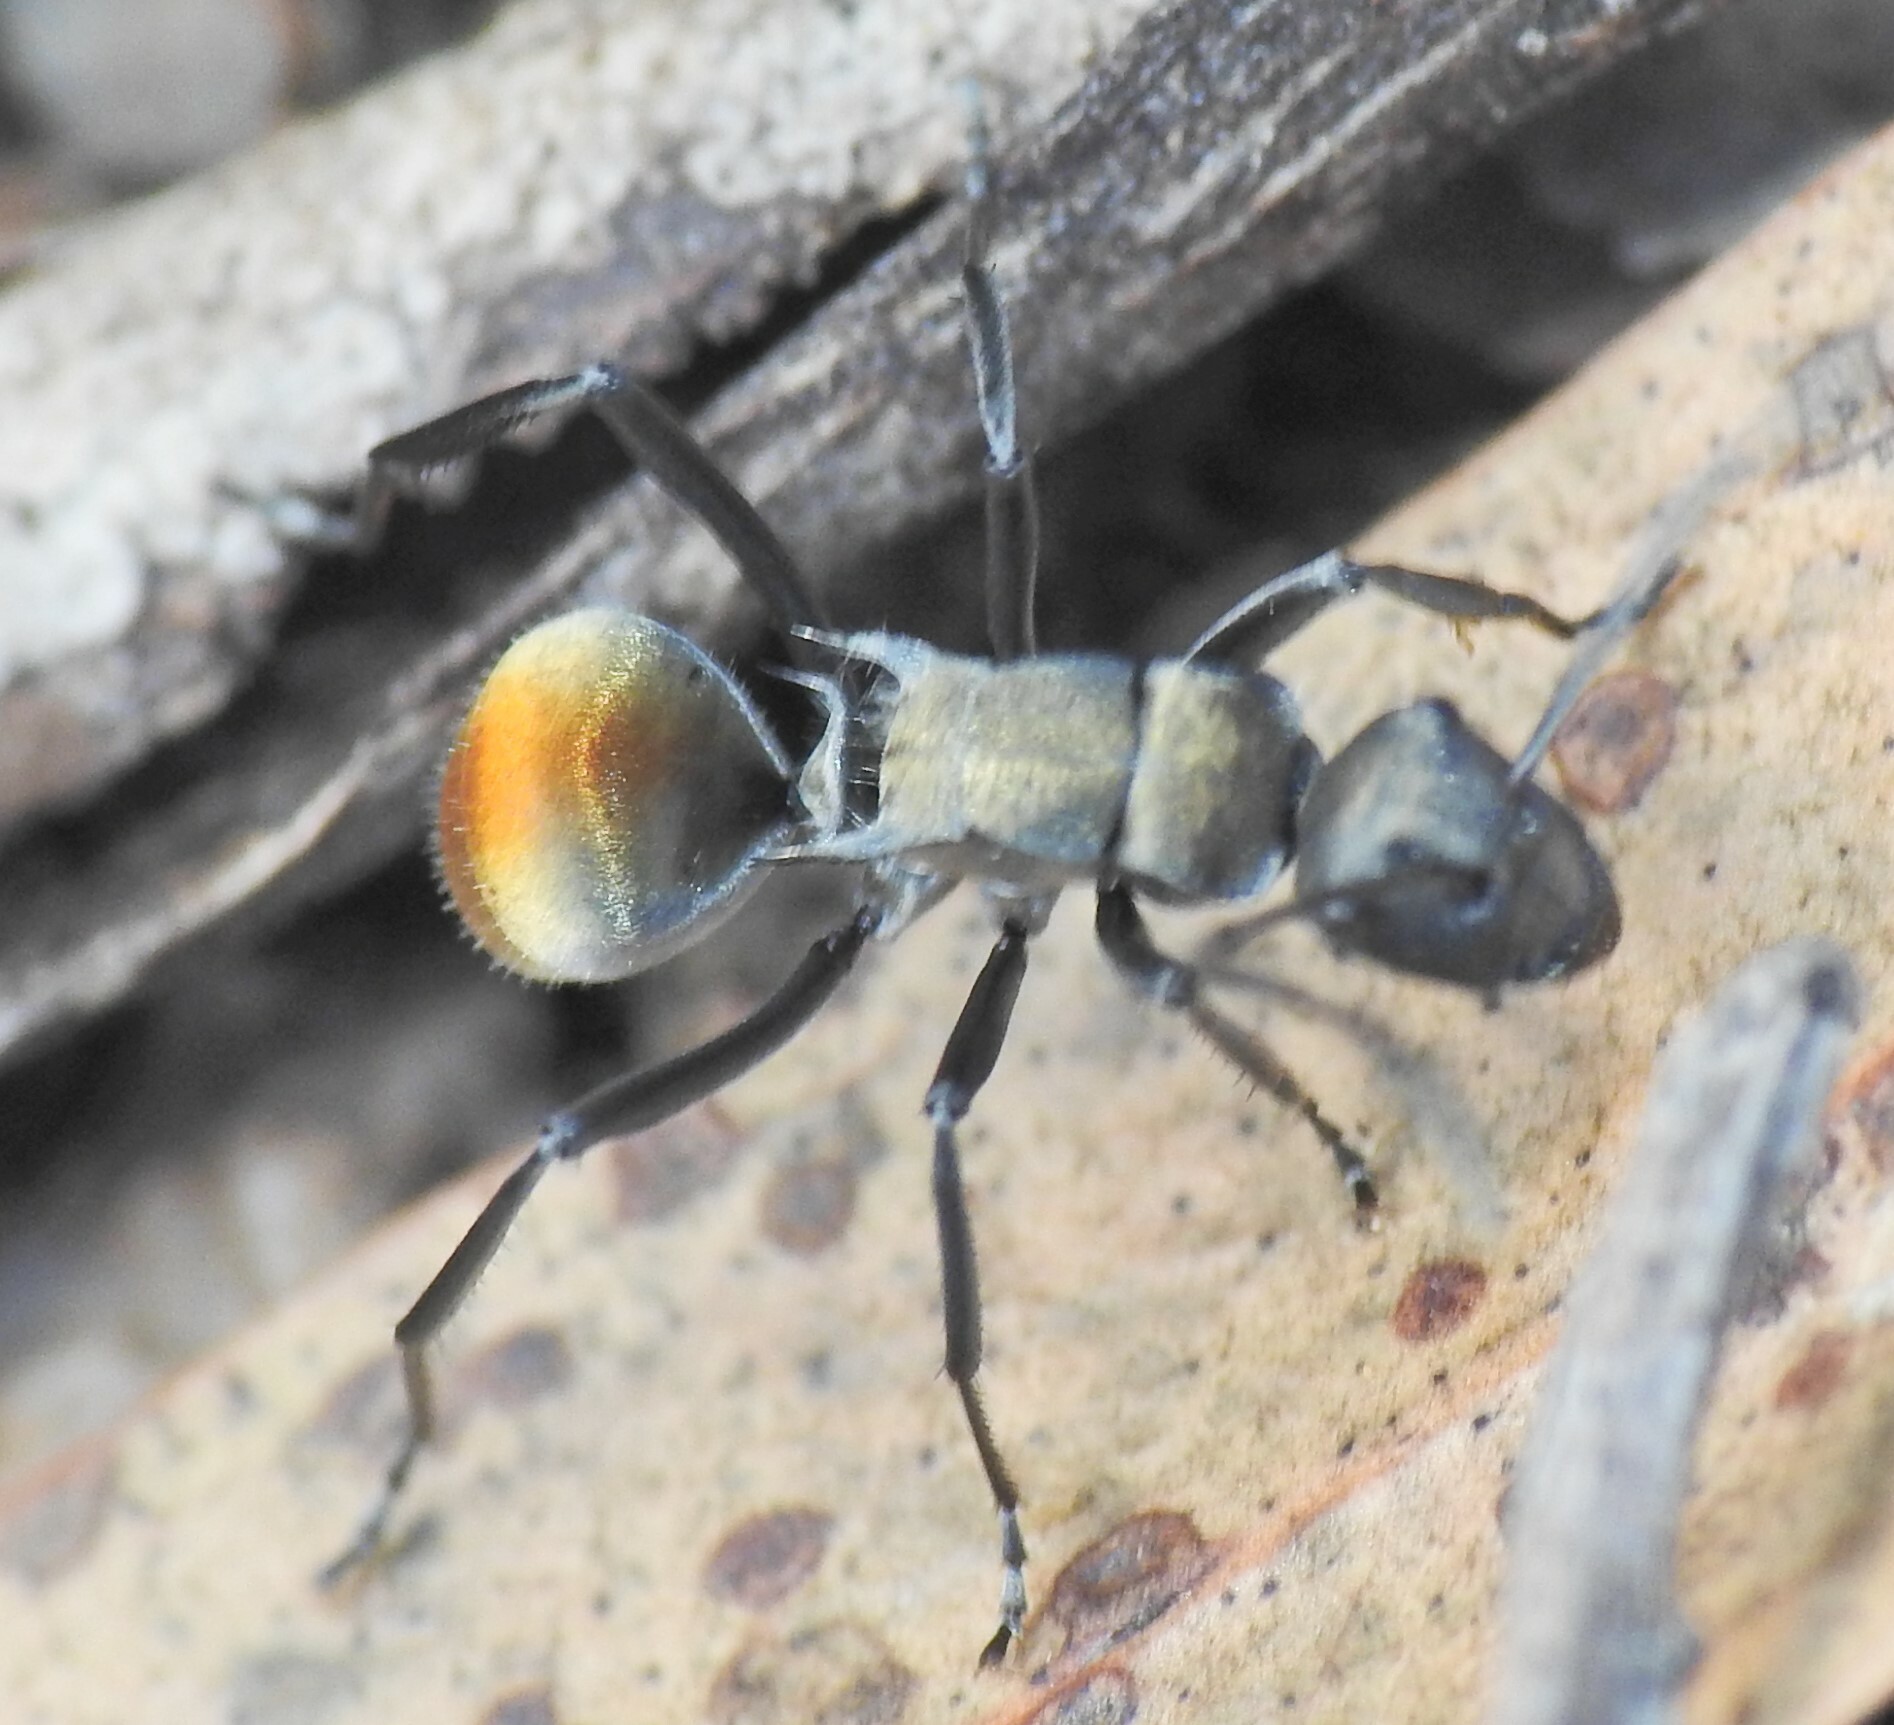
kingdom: Animalia
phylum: Arthropoda
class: Insecta
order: Hymenoptera
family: Formicidae
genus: Polyrhachis
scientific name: Polyrhachis ammon
